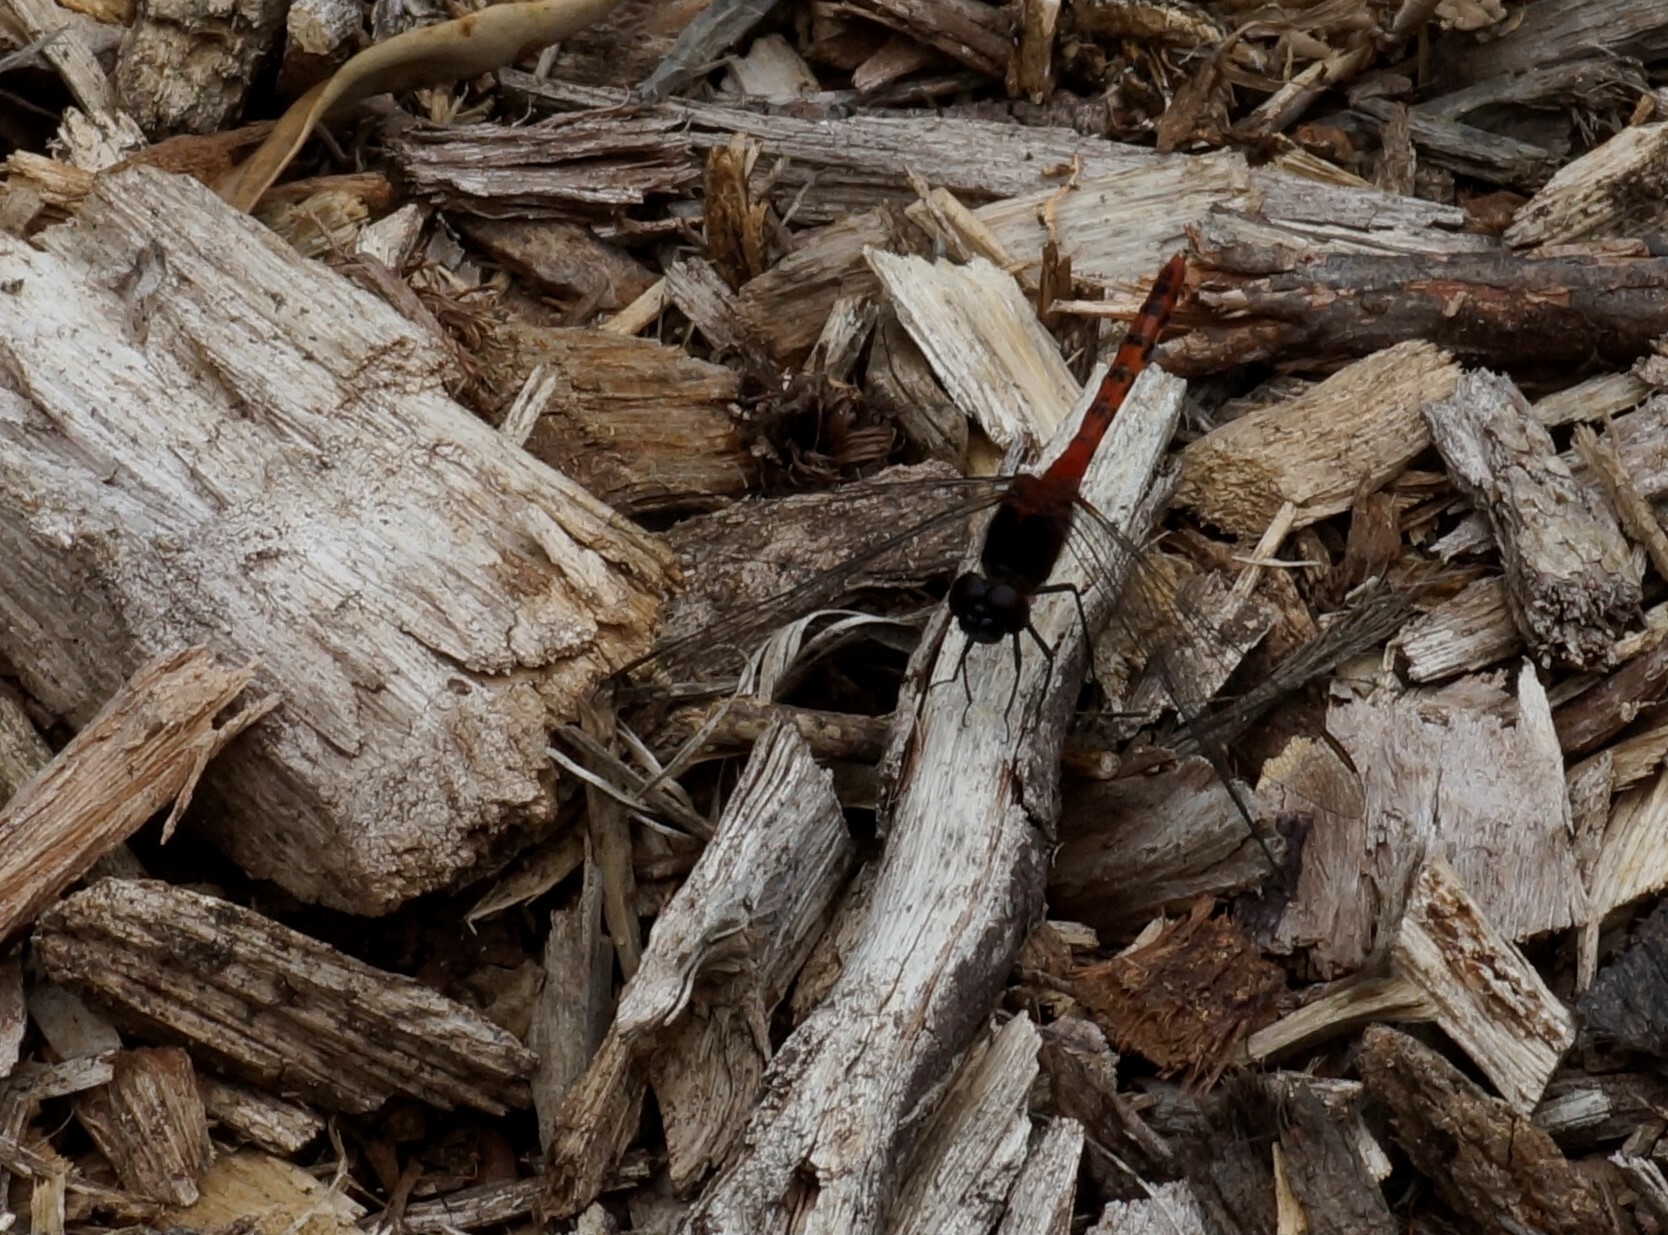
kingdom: Animalia
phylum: Arthropoda
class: Insecta
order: Odonata
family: Libellulidae
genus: Diplacodes
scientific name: Diplacodes melanopsis
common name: Black-faced percher
